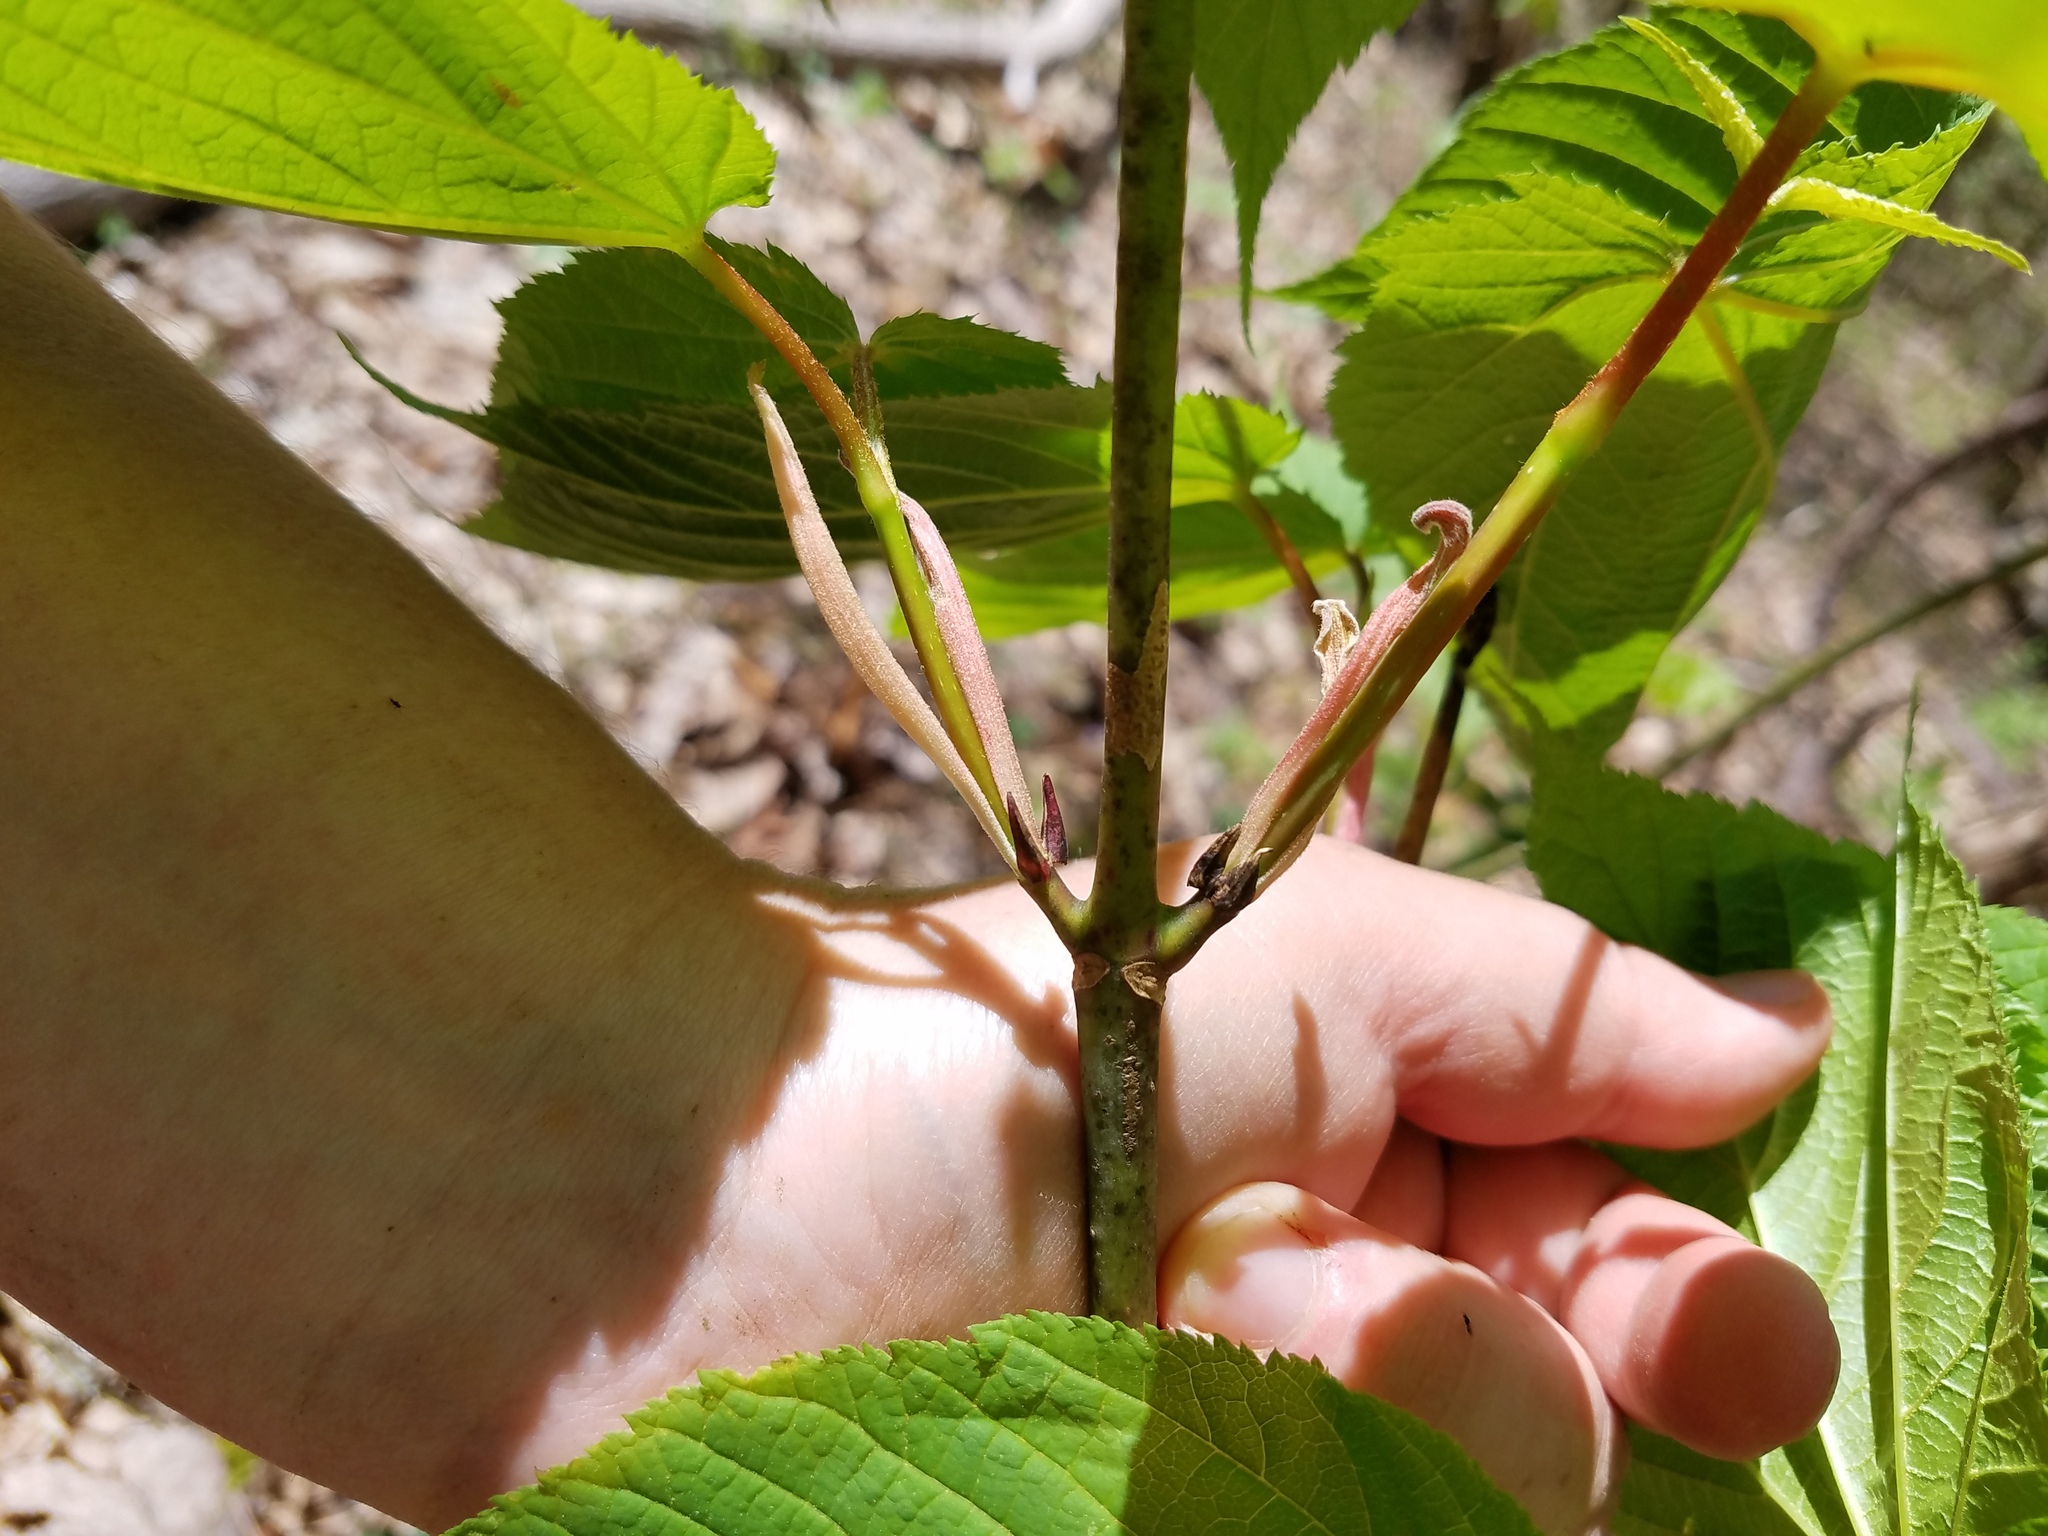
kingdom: Plantae
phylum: Tracheophyta
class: Magnoliopsida
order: Sapindales
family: Sapindaceae
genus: Acer
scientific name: Acer pensylvanicum
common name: Moosewood
